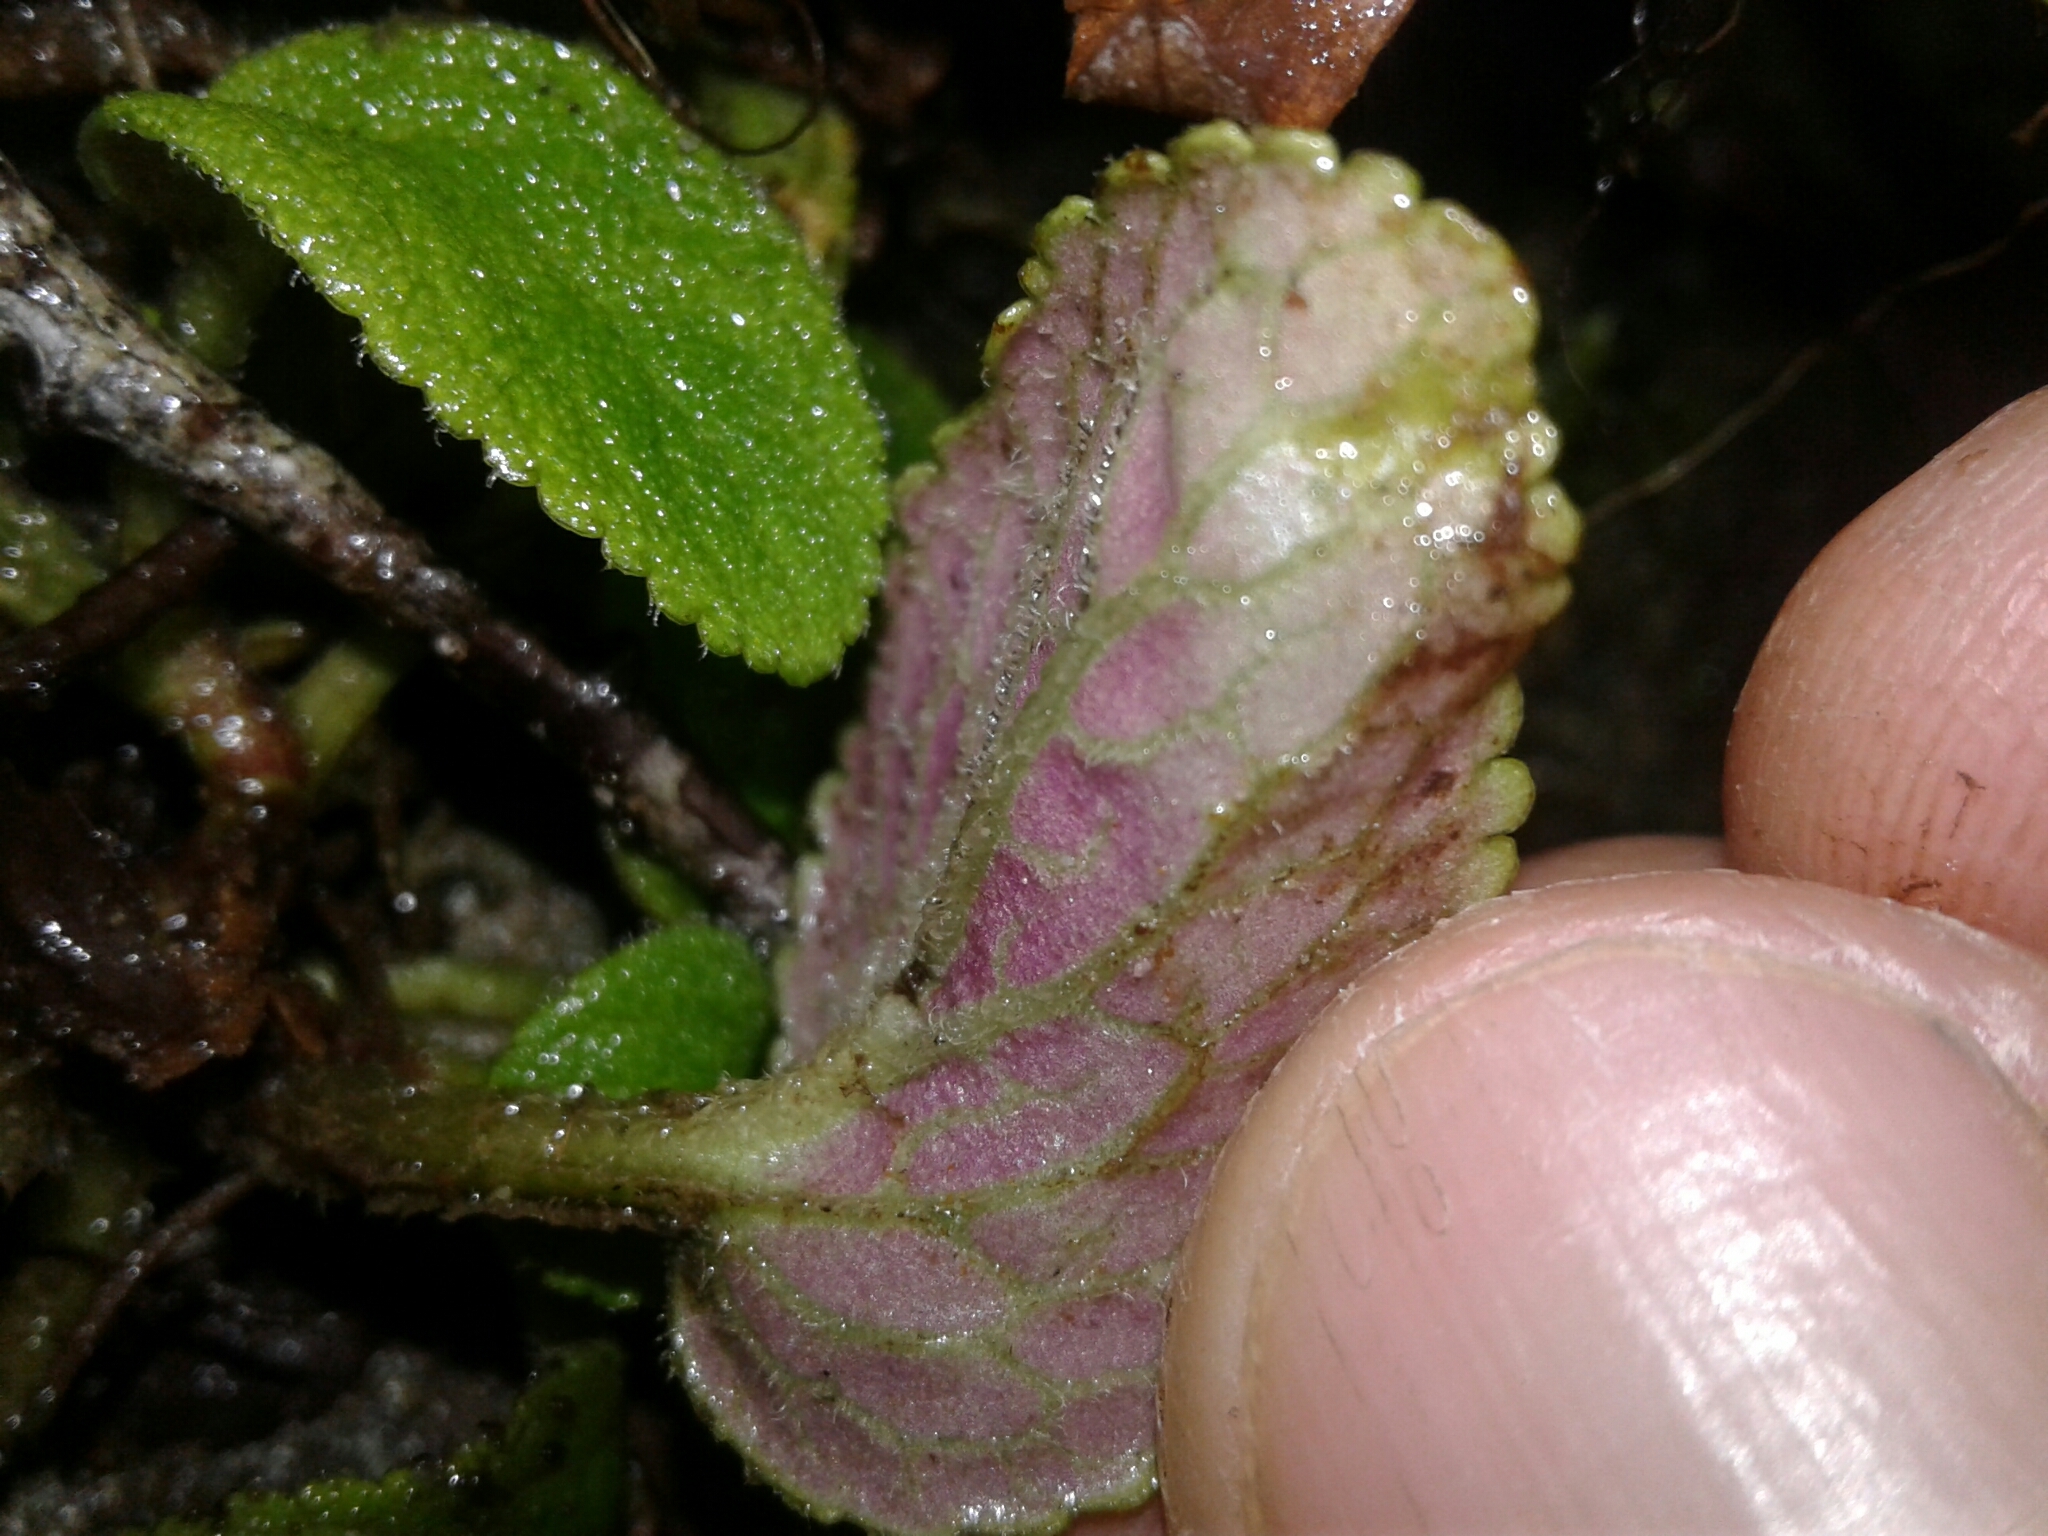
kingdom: Plantae
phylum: Tracheophyta
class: Magnoliopsida
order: Lamiales
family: Plantaginaceae
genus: Ourisia
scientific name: Ourisia macrophylla
